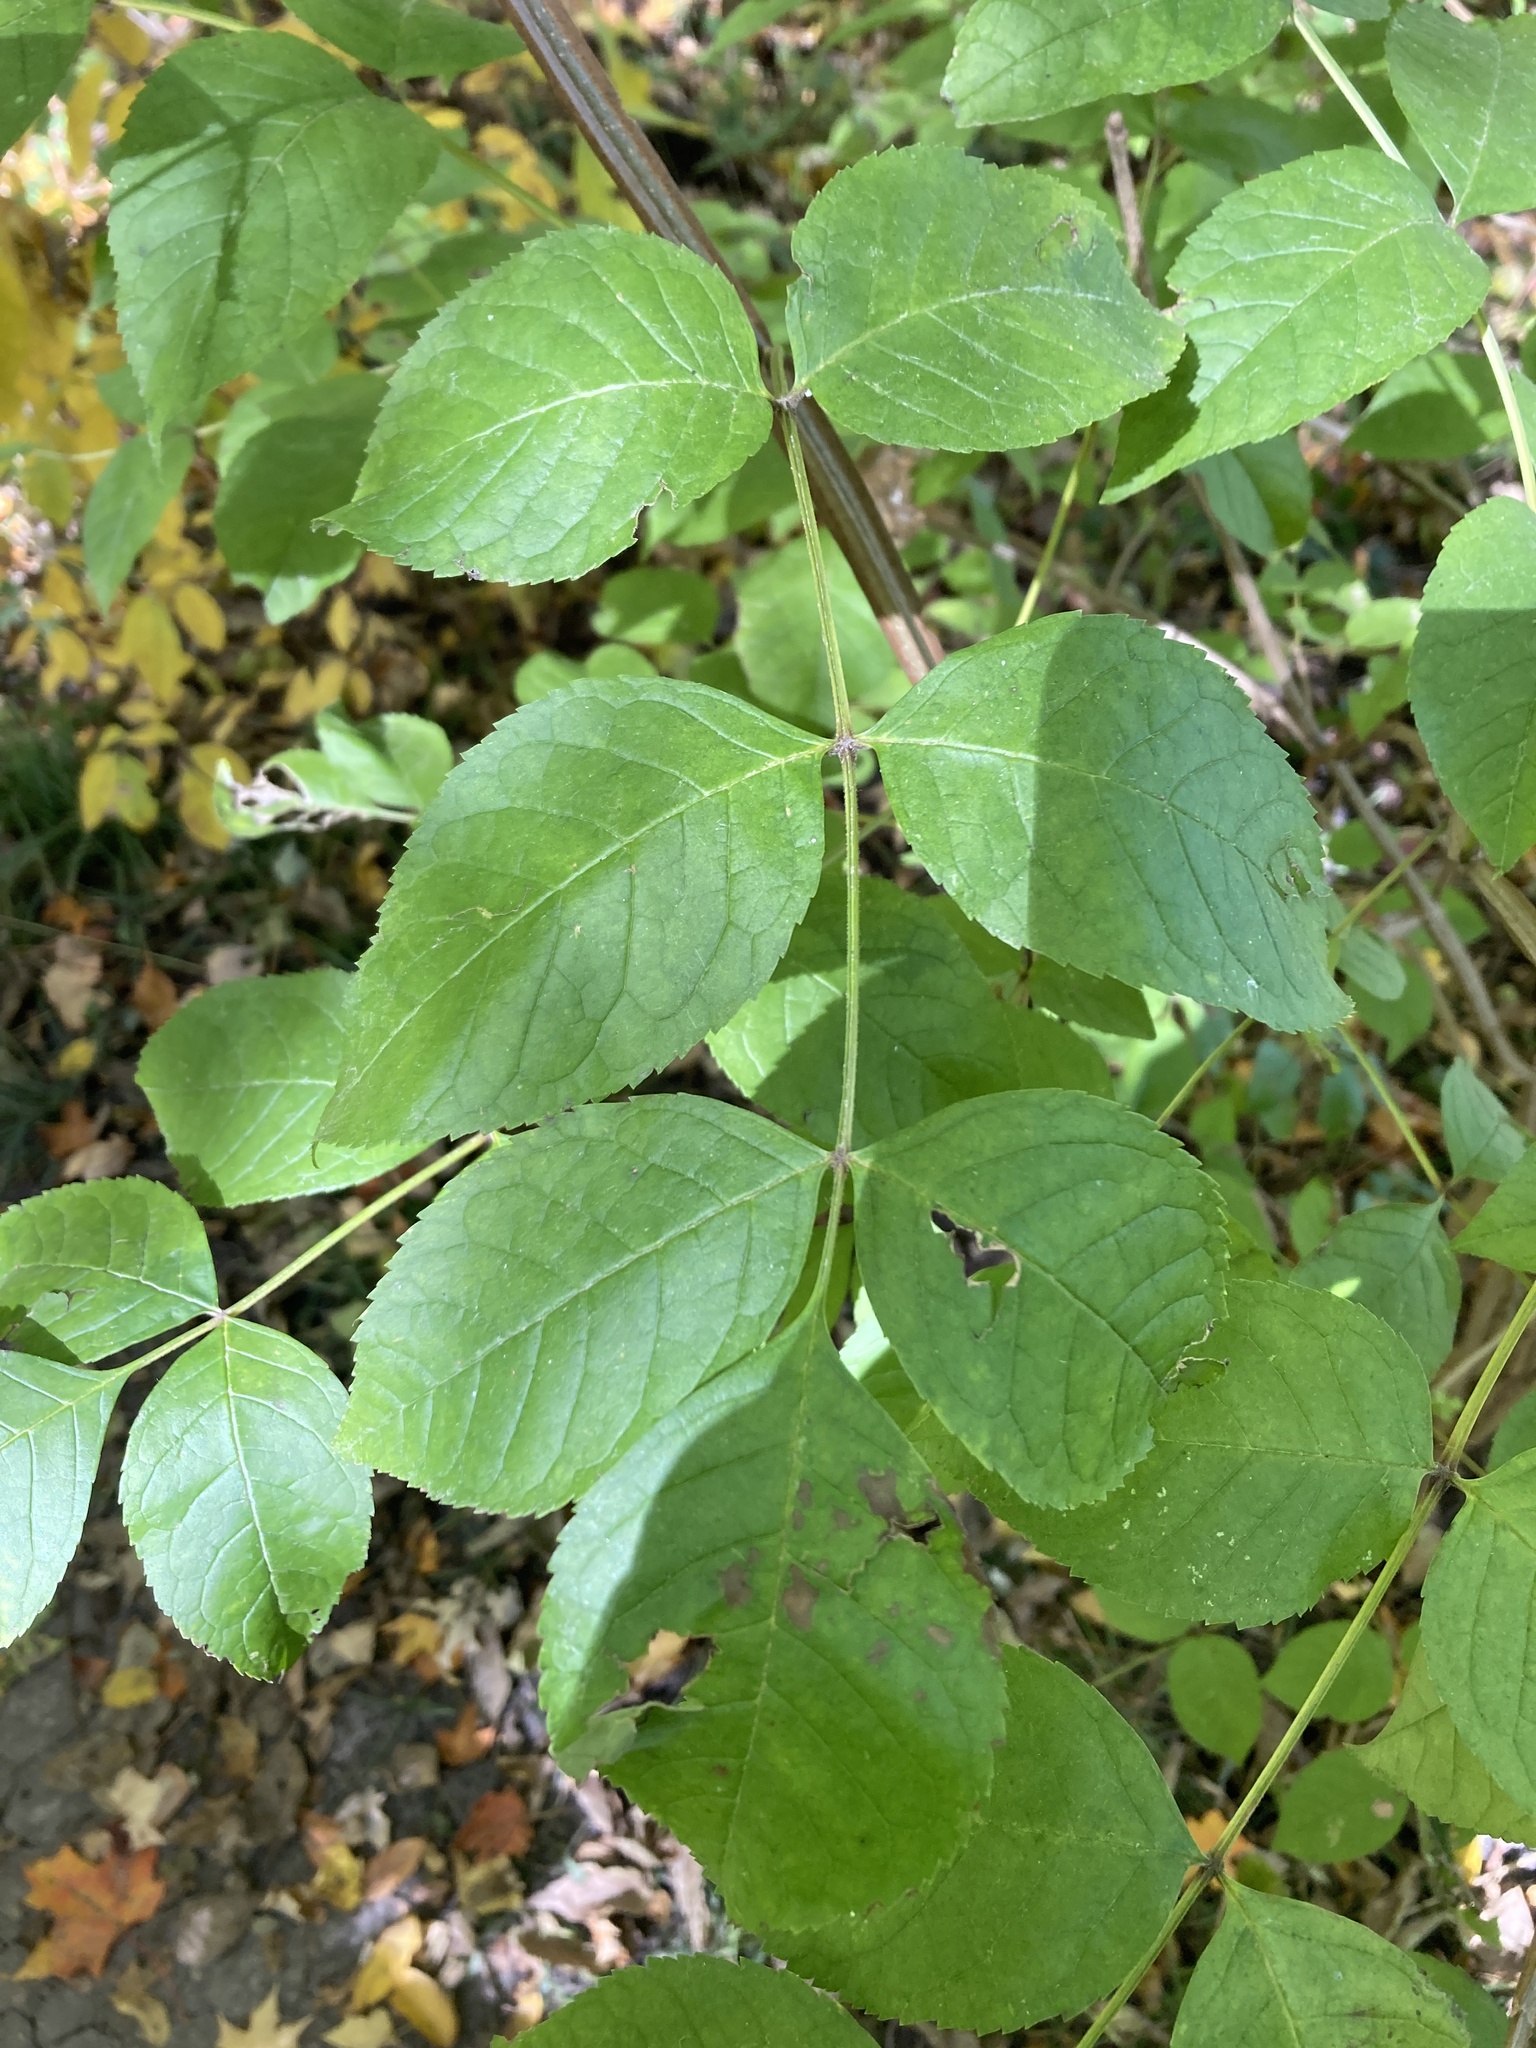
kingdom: Plantae
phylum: Tracheophyta
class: Magnoliopsida
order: Lamiales
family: Oleaceae
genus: Fraxinus
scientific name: Fraxinus quadrangulata
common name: Blue ash
